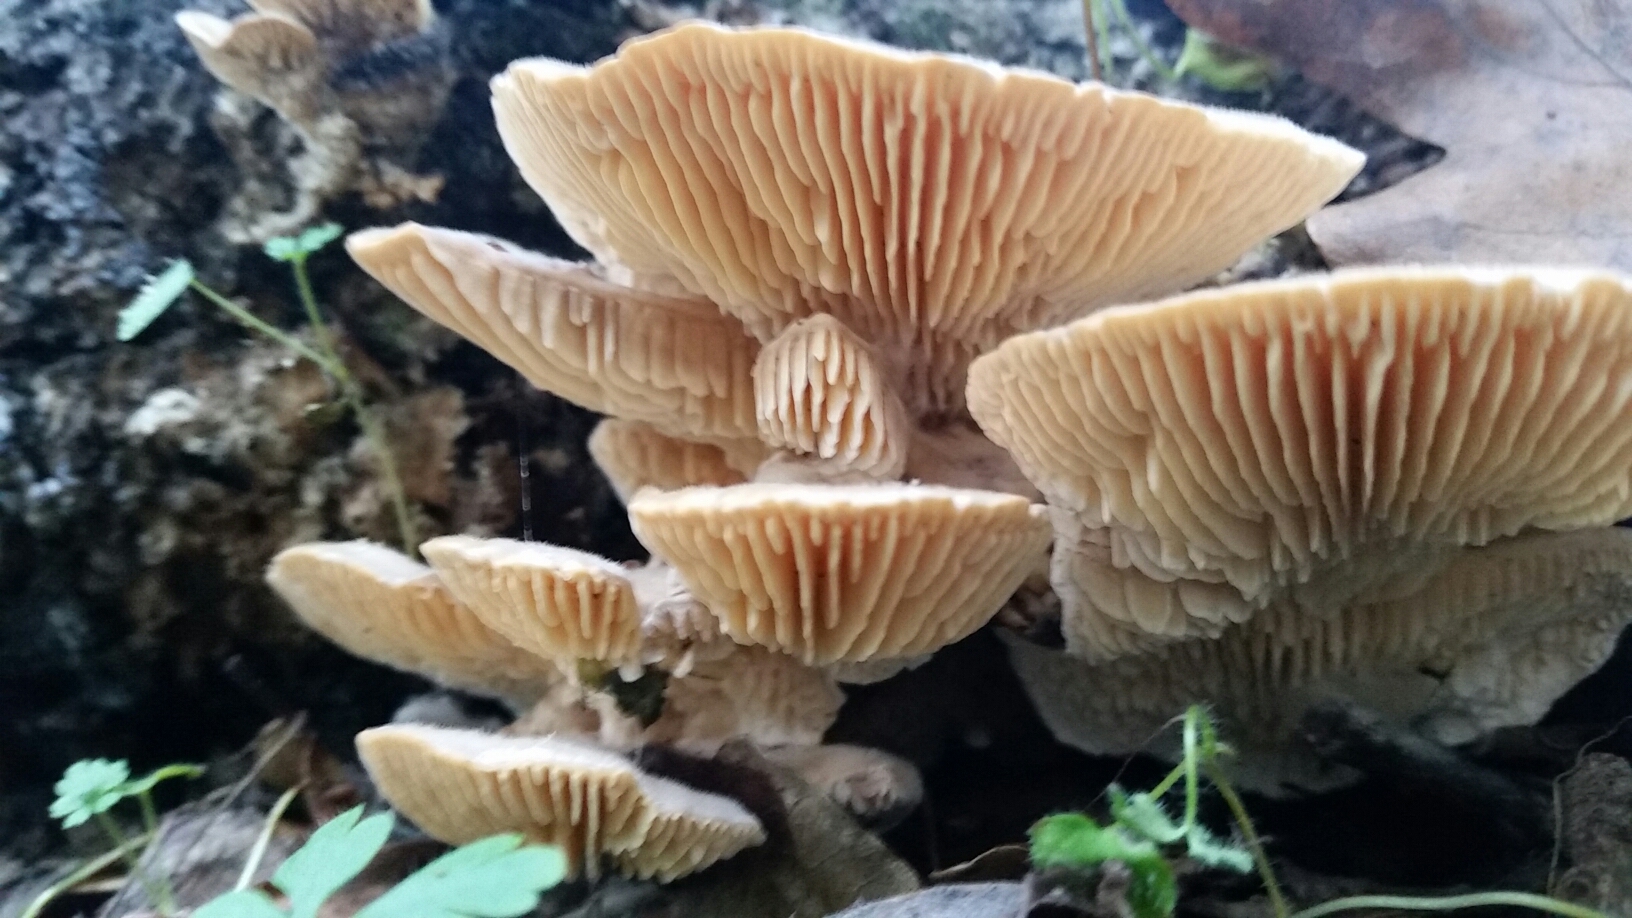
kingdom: Fungi
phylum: Basidiomycota
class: Agaricomycetes
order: Polyporales
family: Polyporaceae
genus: Lenzites
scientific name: Lenzites betulinus
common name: Birch mazegill
